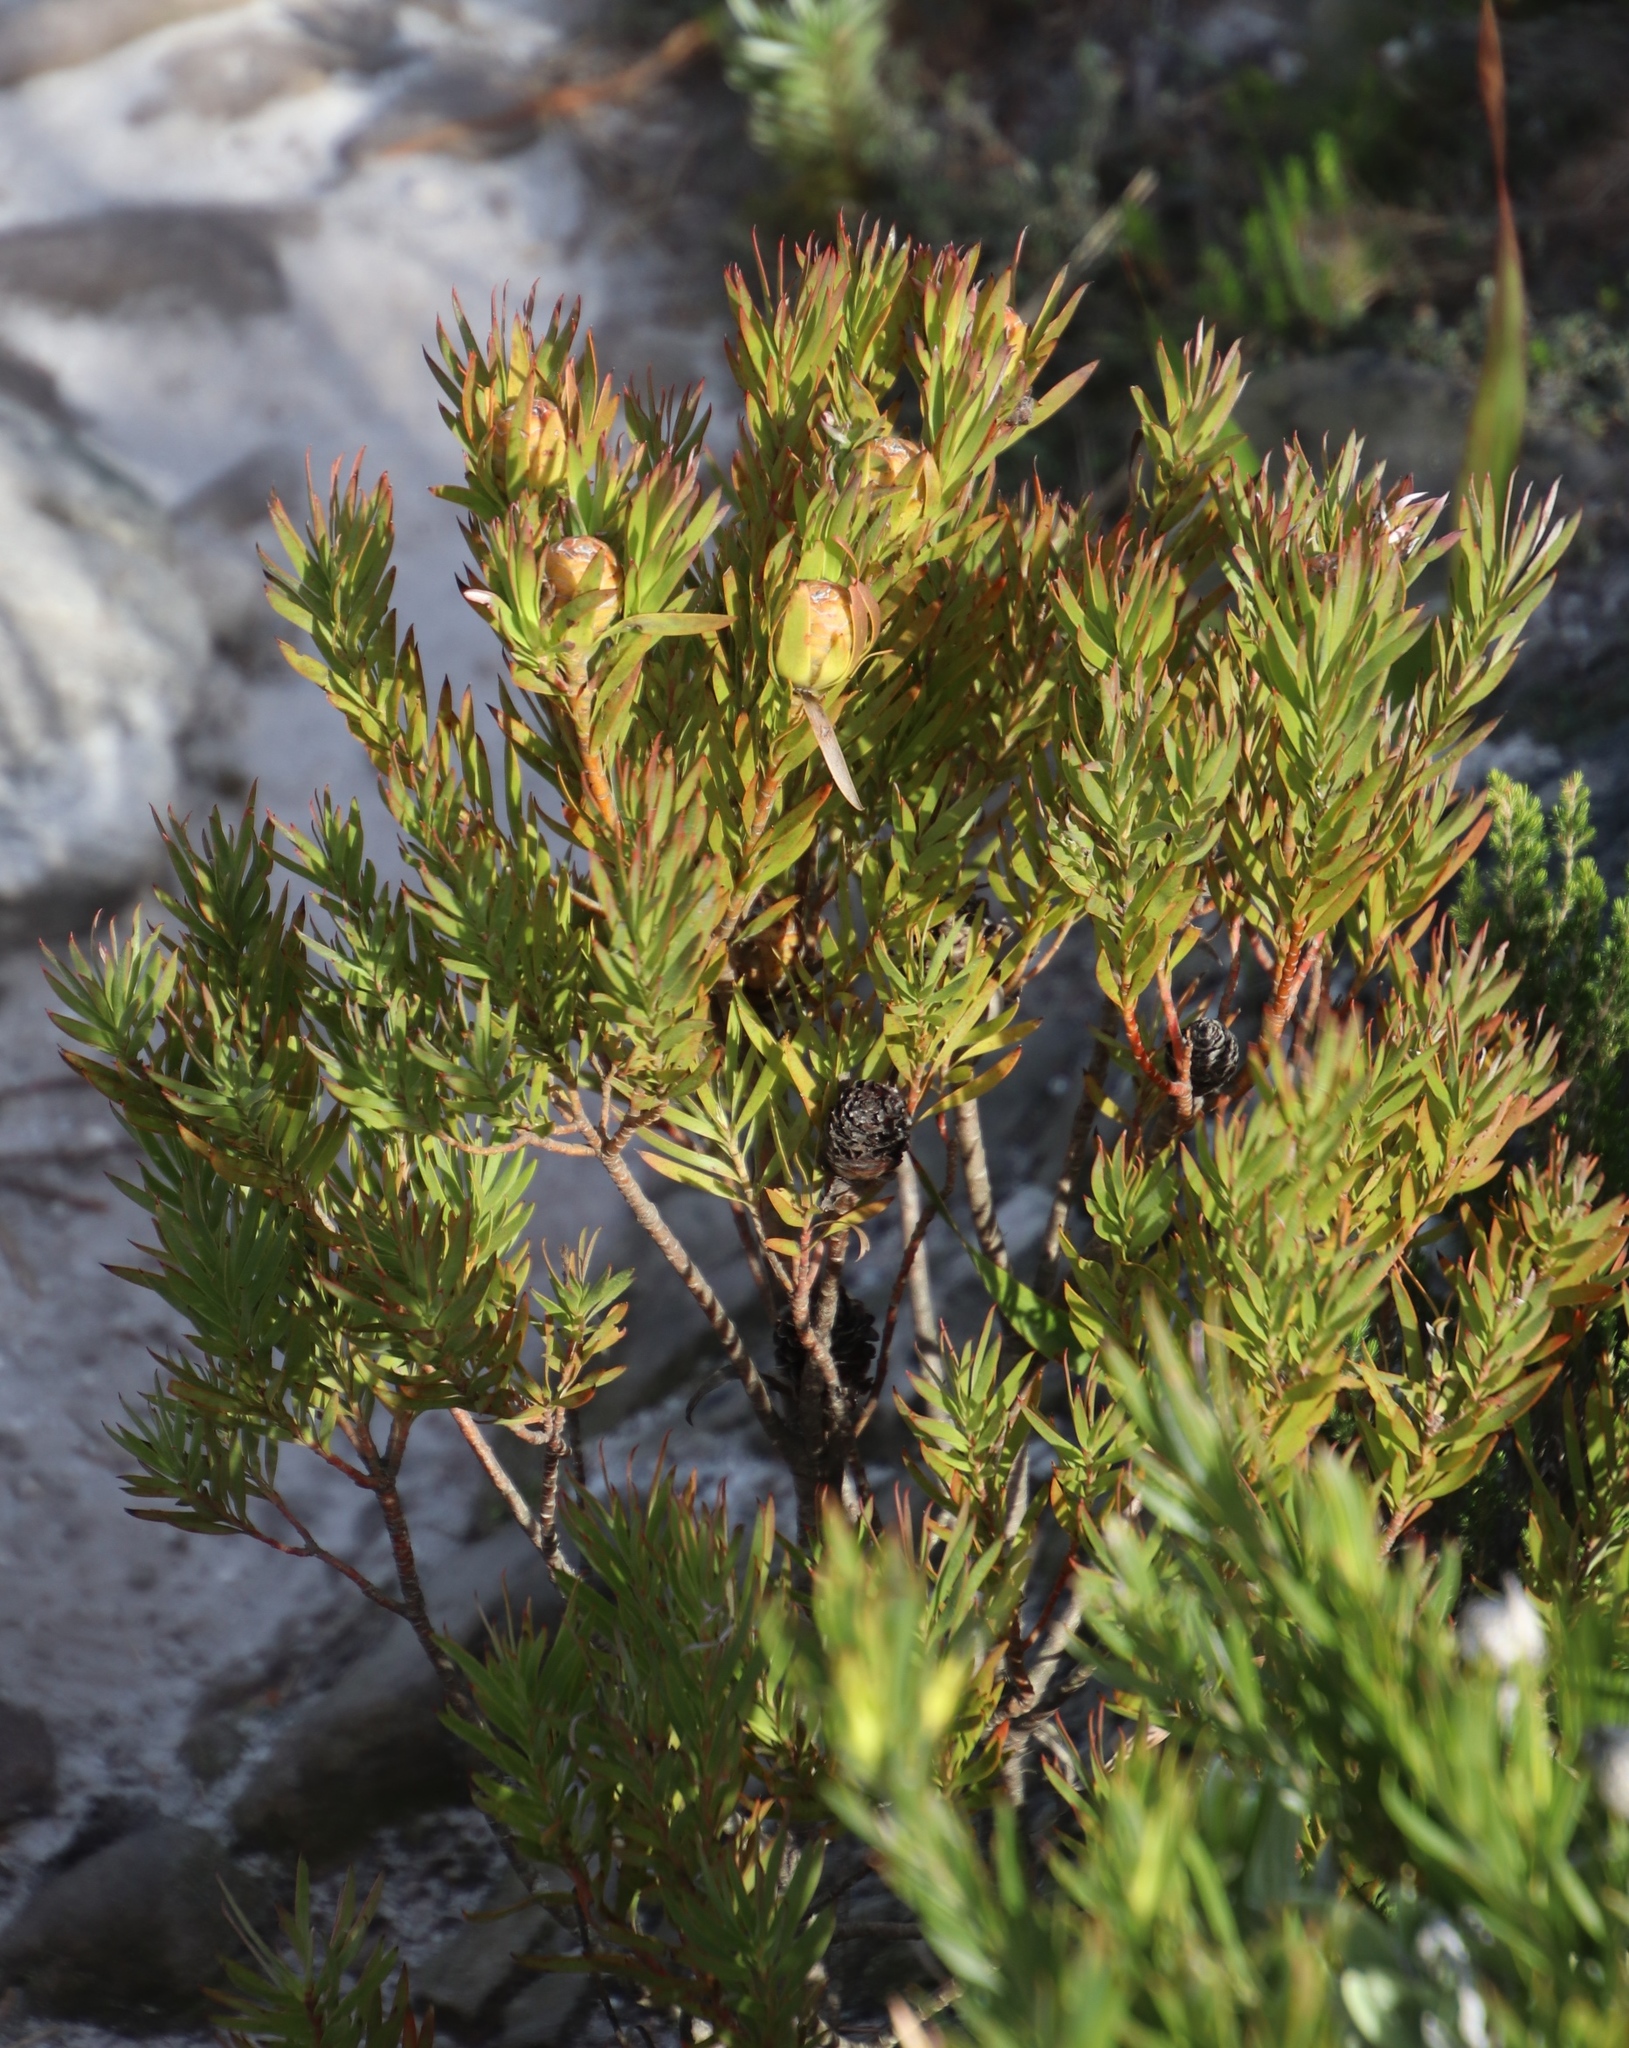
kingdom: Plantae
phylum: Tracheophyta
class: Magnoliopsida
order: Proteales
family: Proteaceae
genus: Leucadendron
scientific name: Leucadendron xanthoconus
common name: Sickle-leaf conebush
